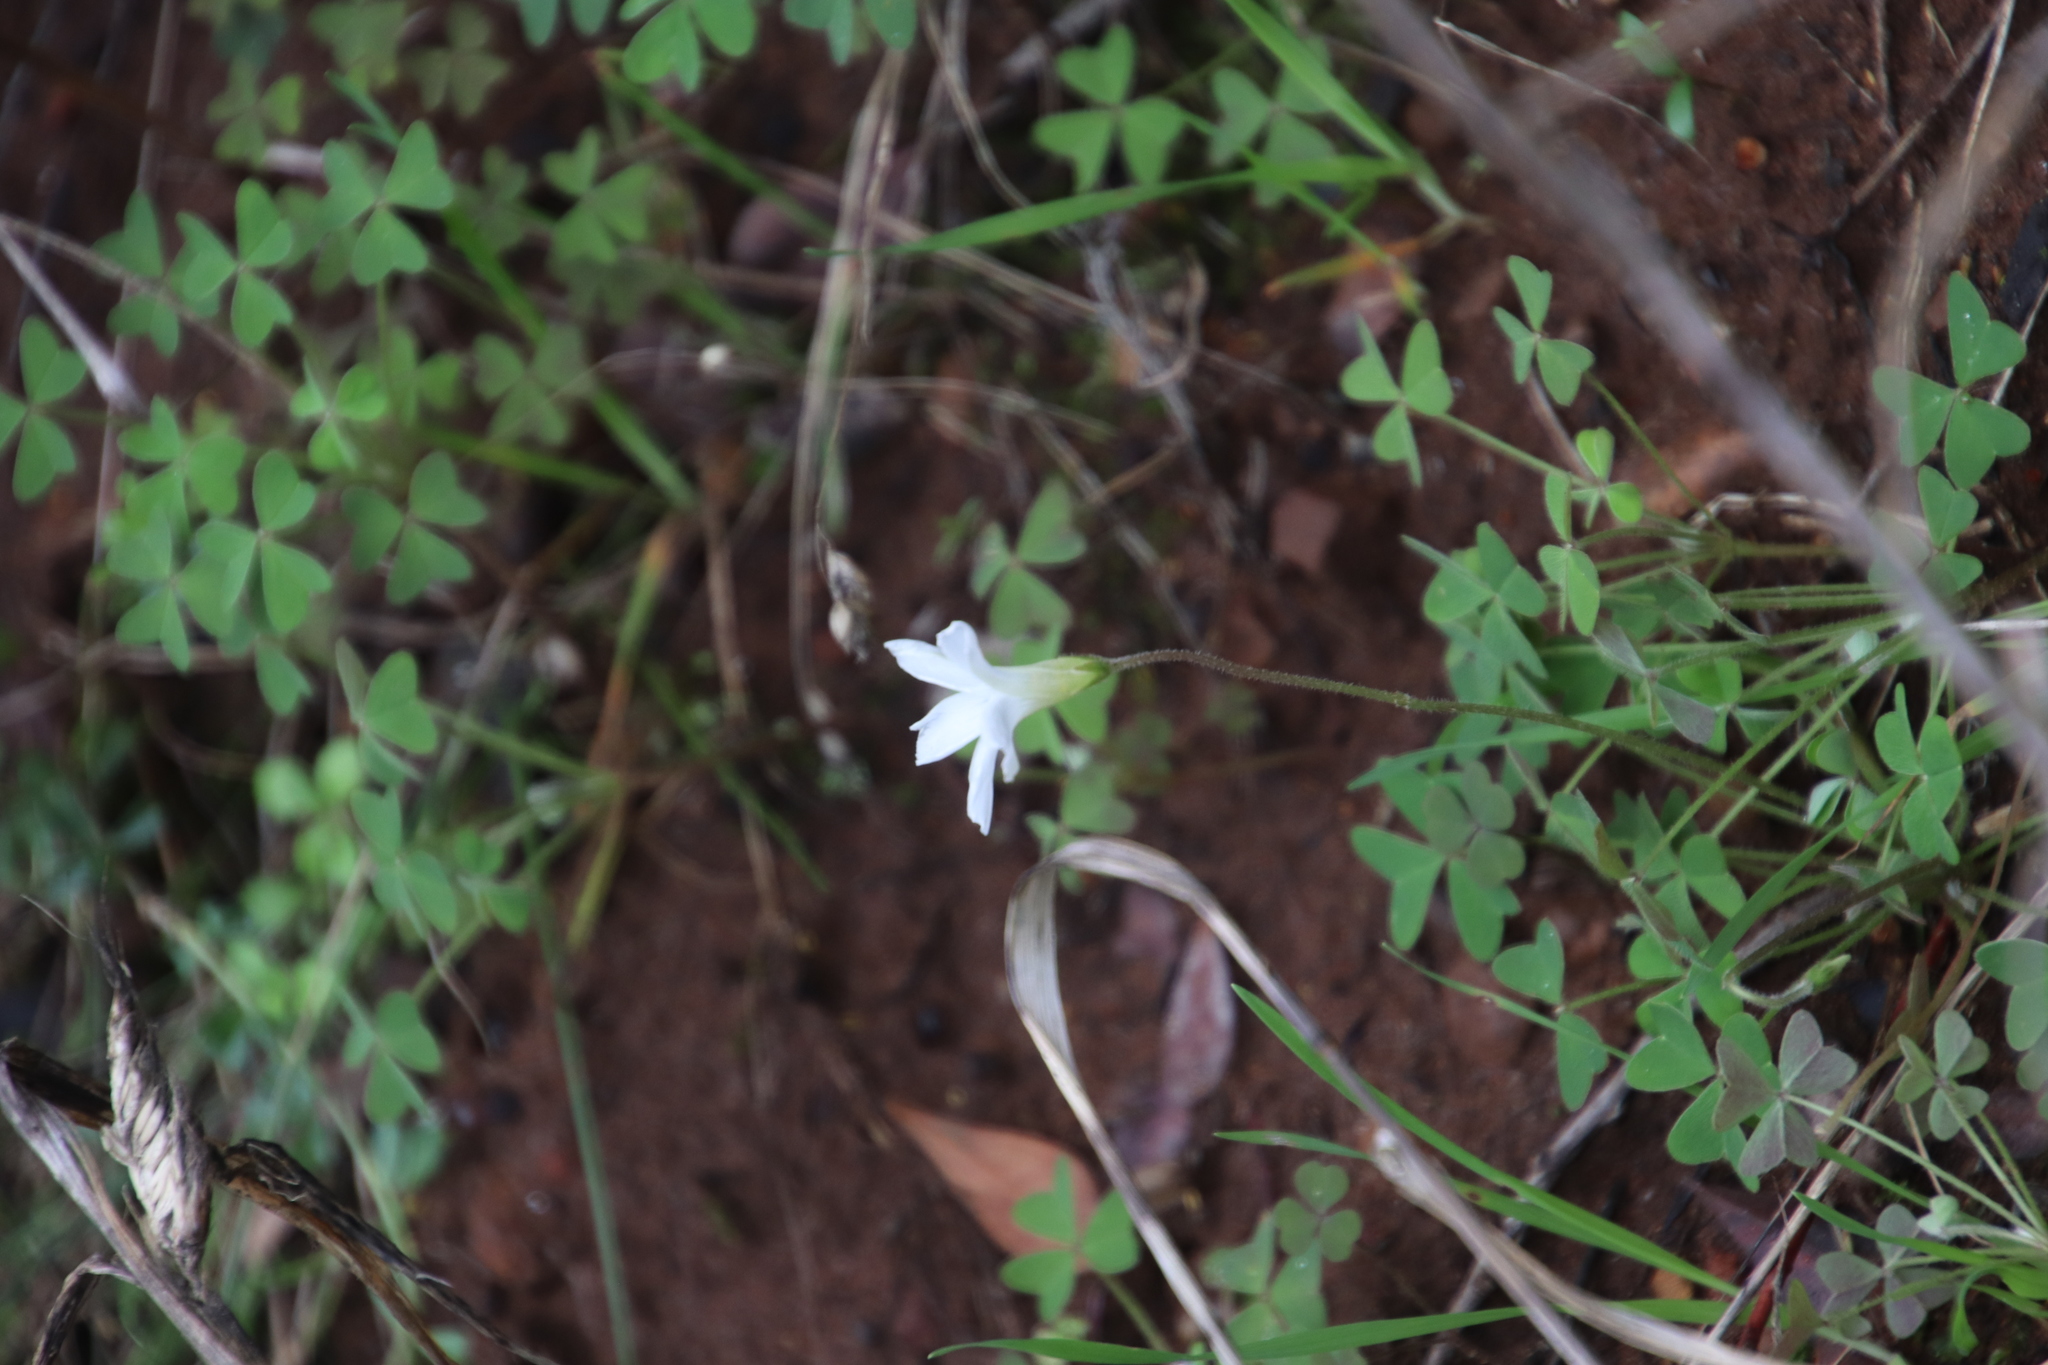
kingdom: Plantae
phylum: Tracheophyta
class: Magnoliopsida
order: Oxalidales
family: Oxalidaceae
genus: Oxalis
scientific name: Oxalis lanata
